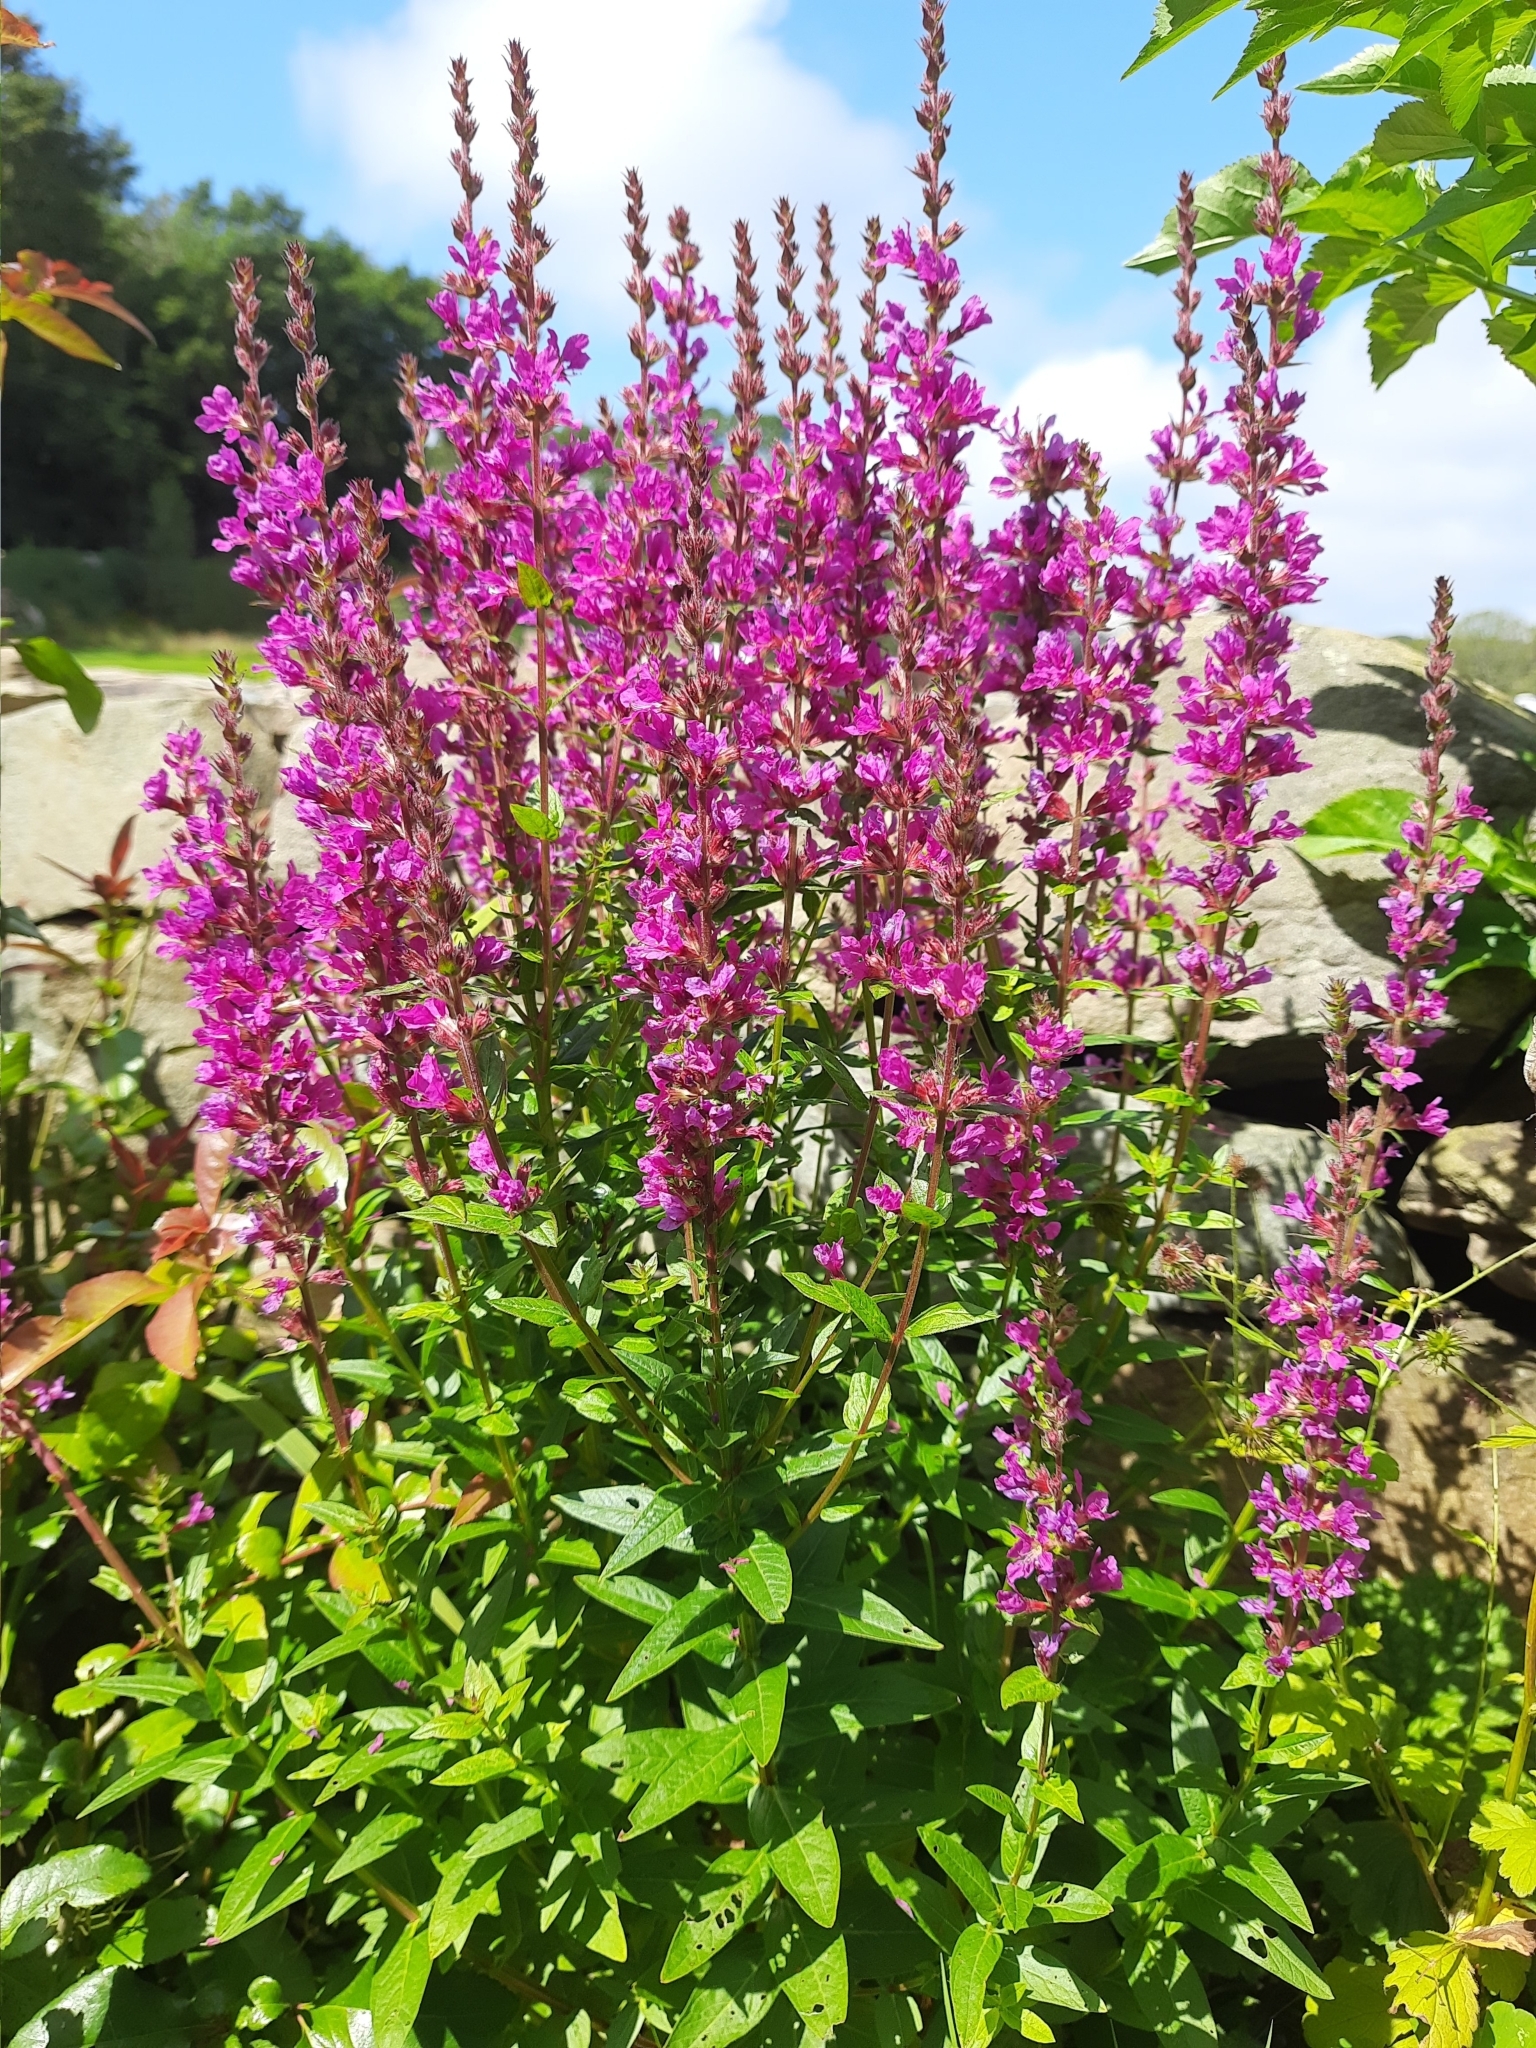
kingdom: Plantae
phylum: Tracheophyta
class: Magnoliopsida
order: Myrtales
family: Lythraceae
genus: Lythrum
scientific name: Lythrum salicaria
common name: Purple loosestrife
